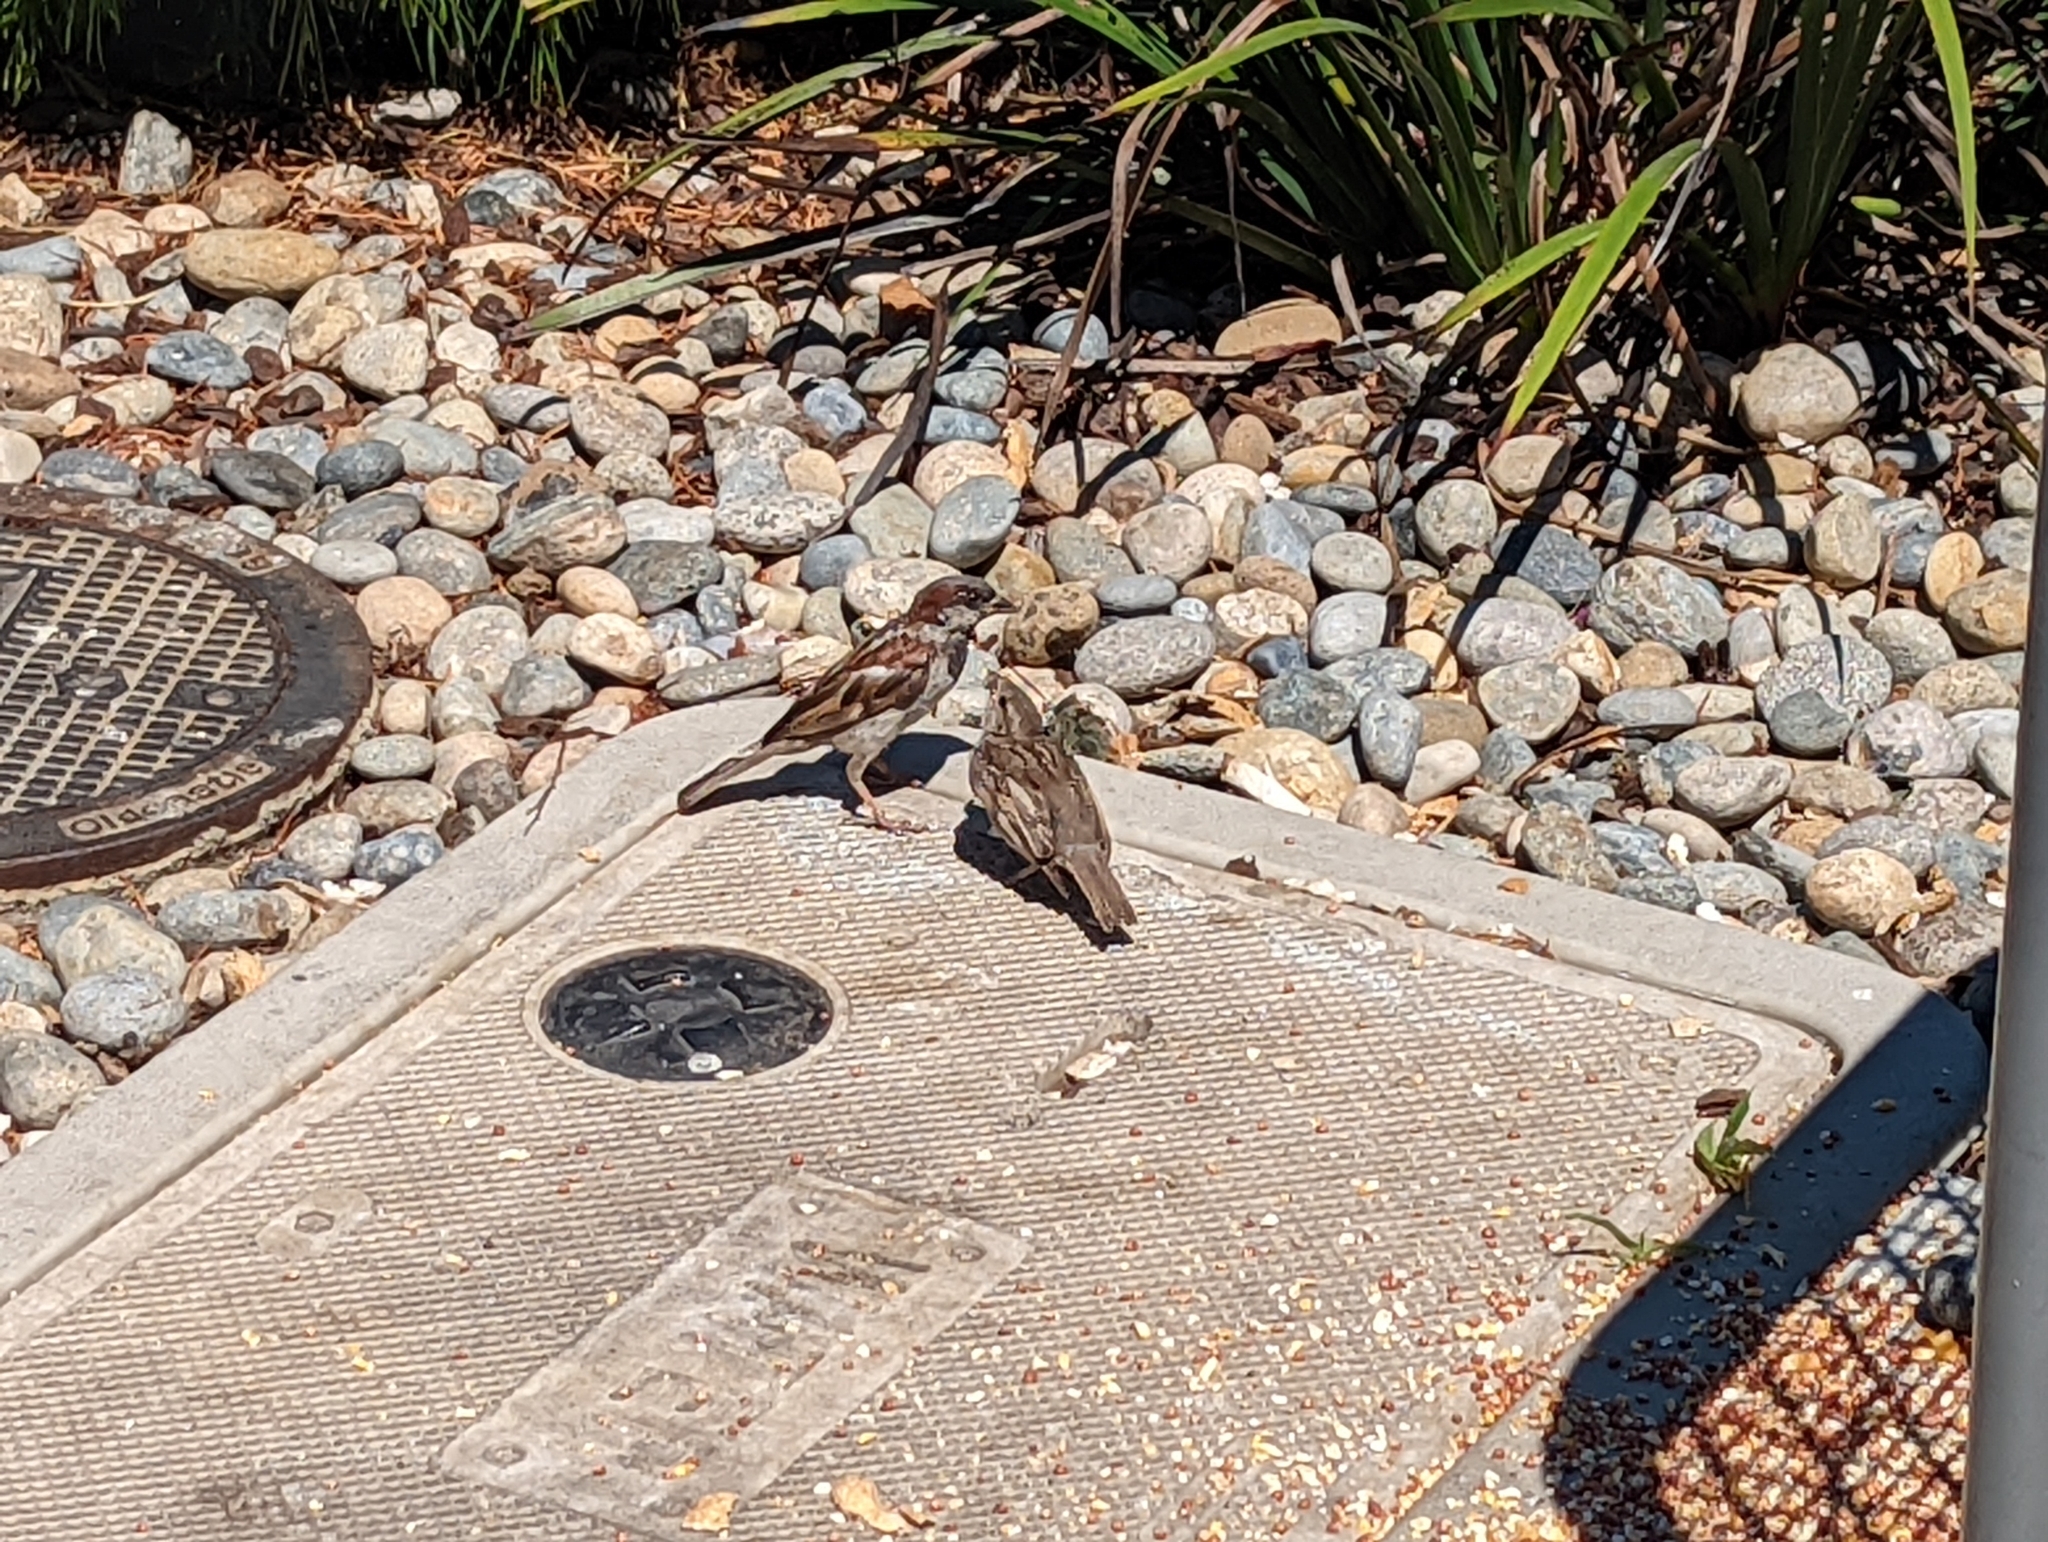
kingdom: Animalia
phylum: Chordata
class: Aves
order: Passeriformes
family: Passeridae
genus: Passer
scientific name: Passer domesticus
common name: House sparrow
